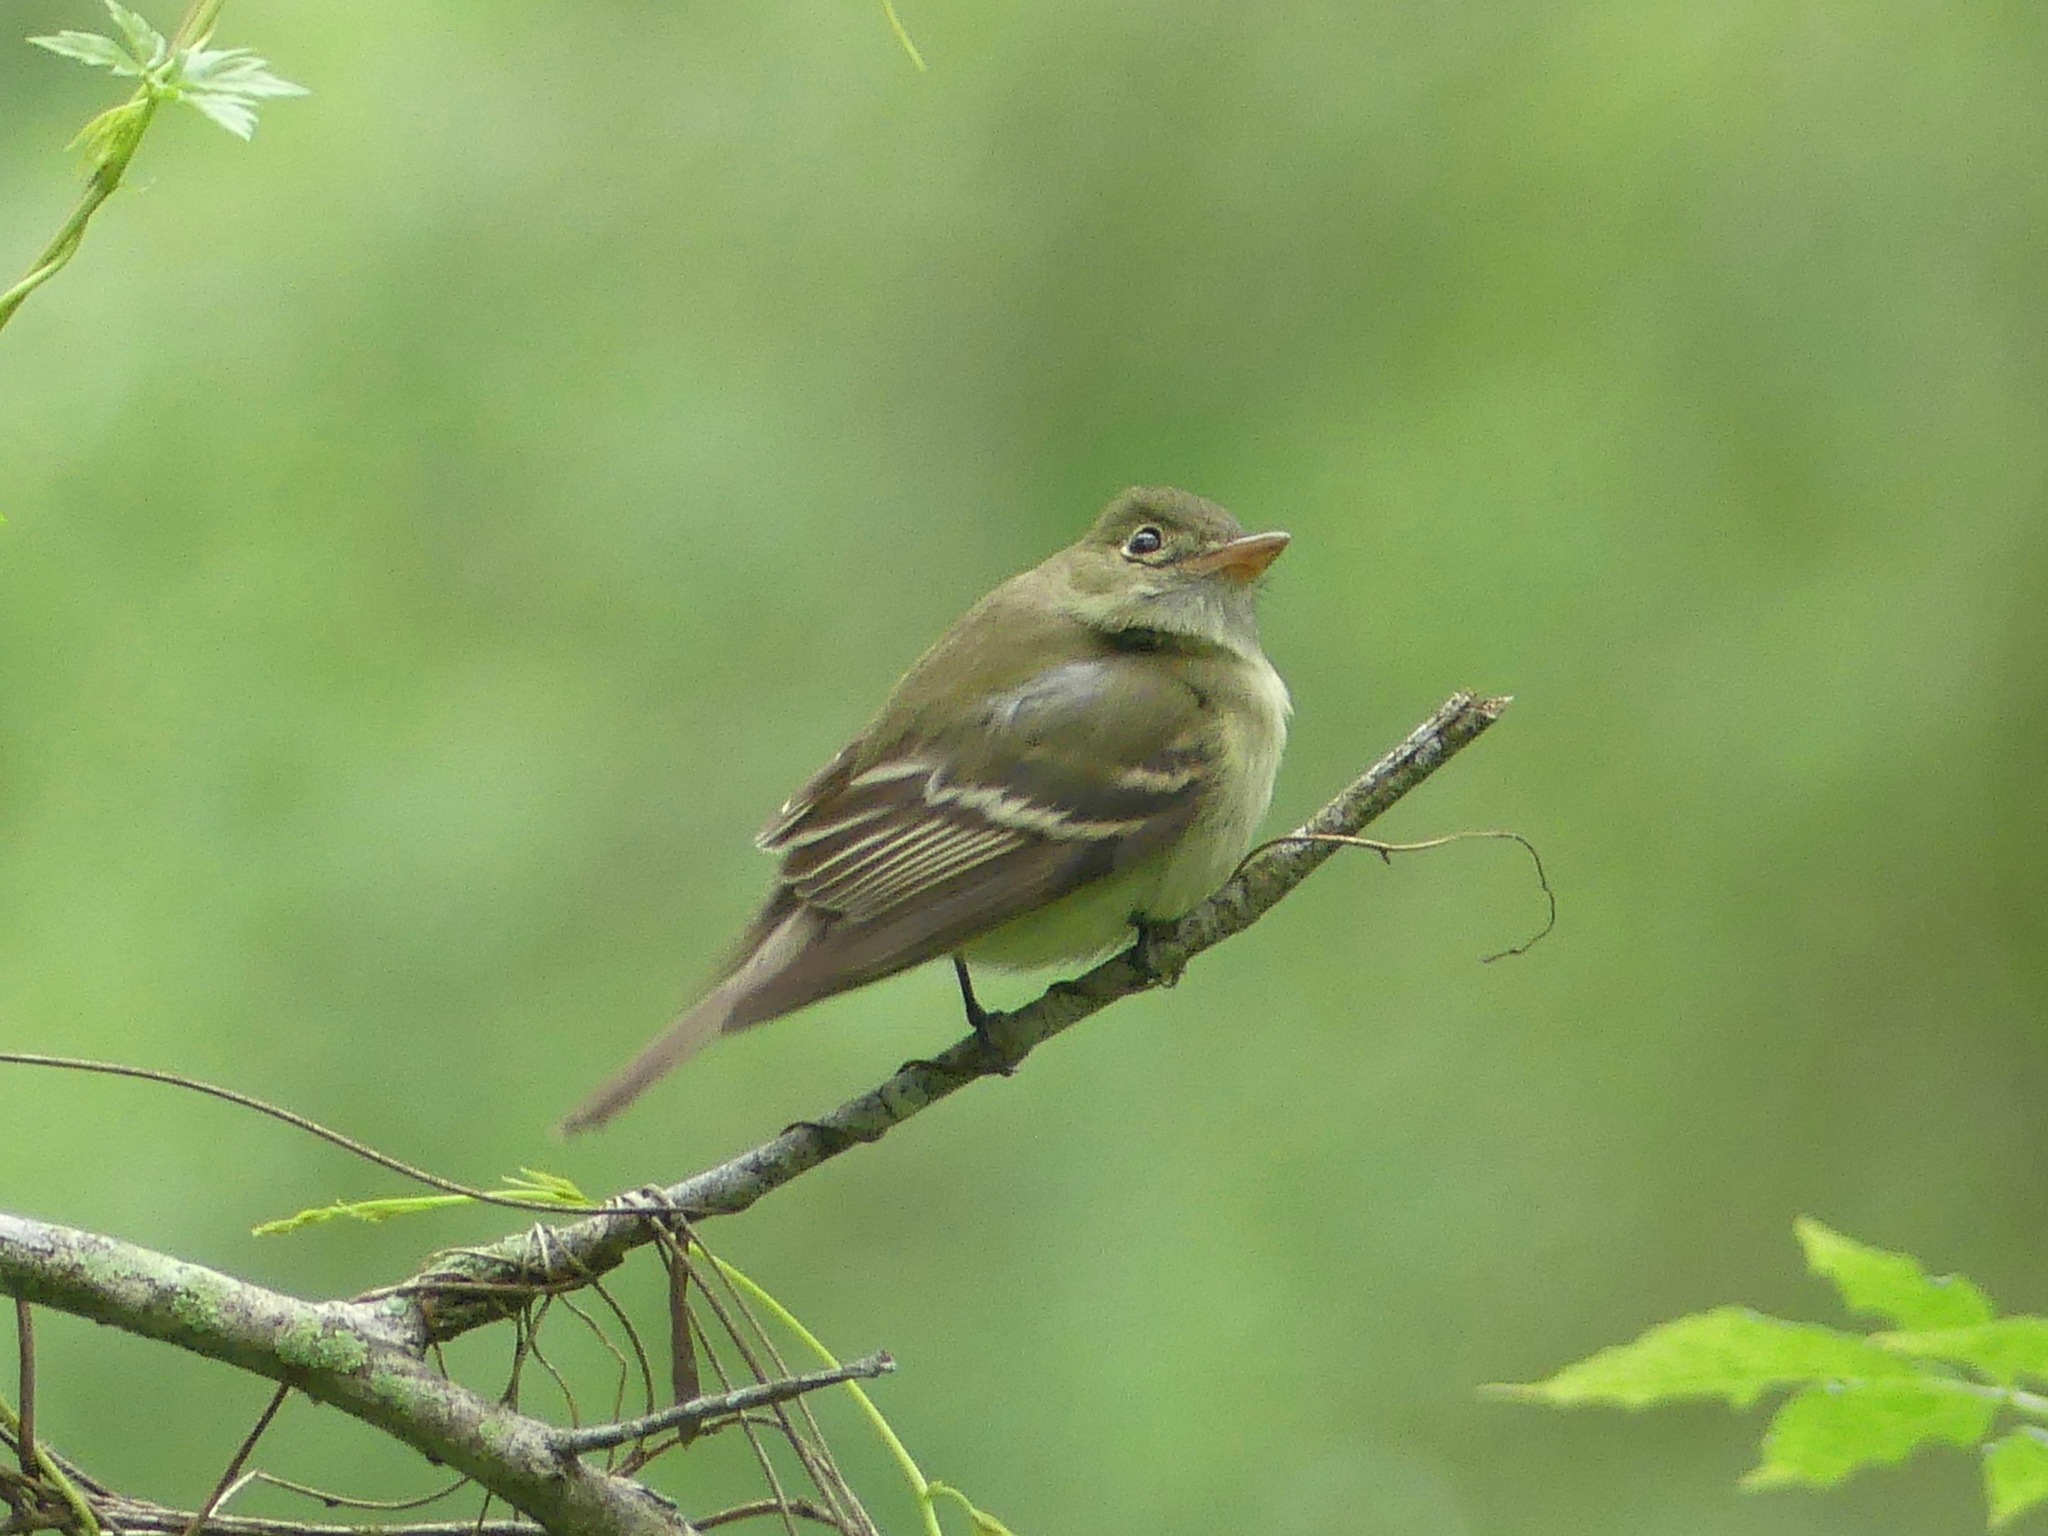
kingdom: Animalia
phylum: Chordata
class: Aves
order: Passeriformes
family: Tyrannidae
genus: Empidonax
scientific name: Empidonax virescens
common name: Acadian flycatcher
